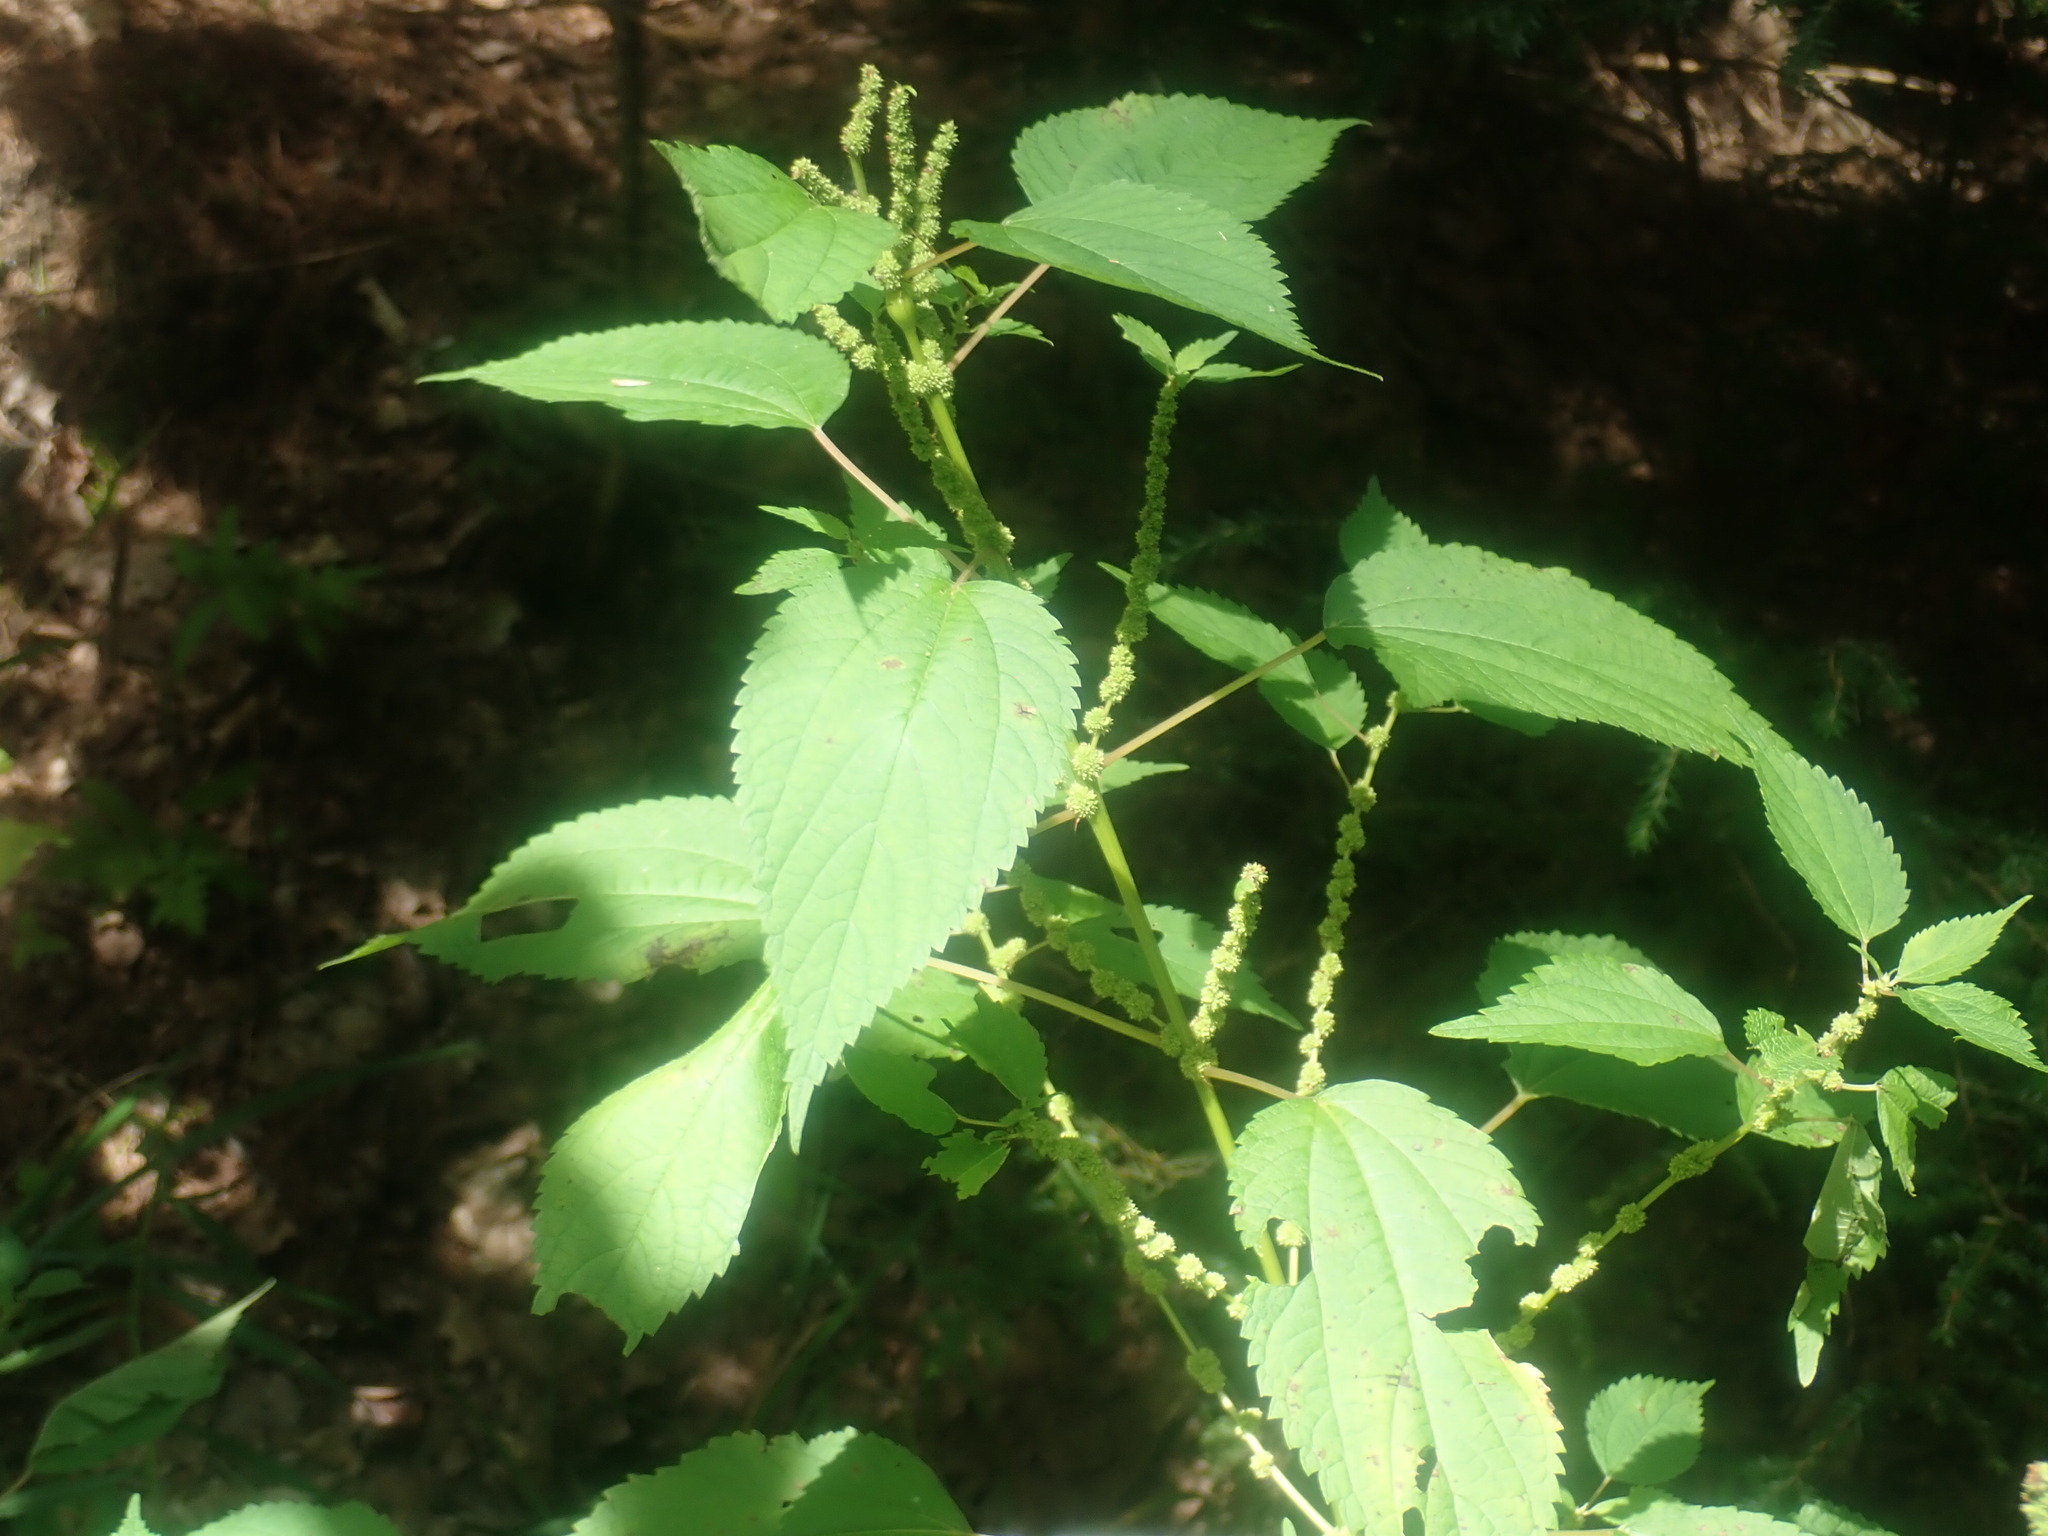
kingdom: Plantae
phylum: Tracheophyta
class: Magnoliopsida
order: Rosales
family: Urticaceae
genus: Boehmeria
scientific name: Boehmeria cylindrica
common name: Bog-hemp
